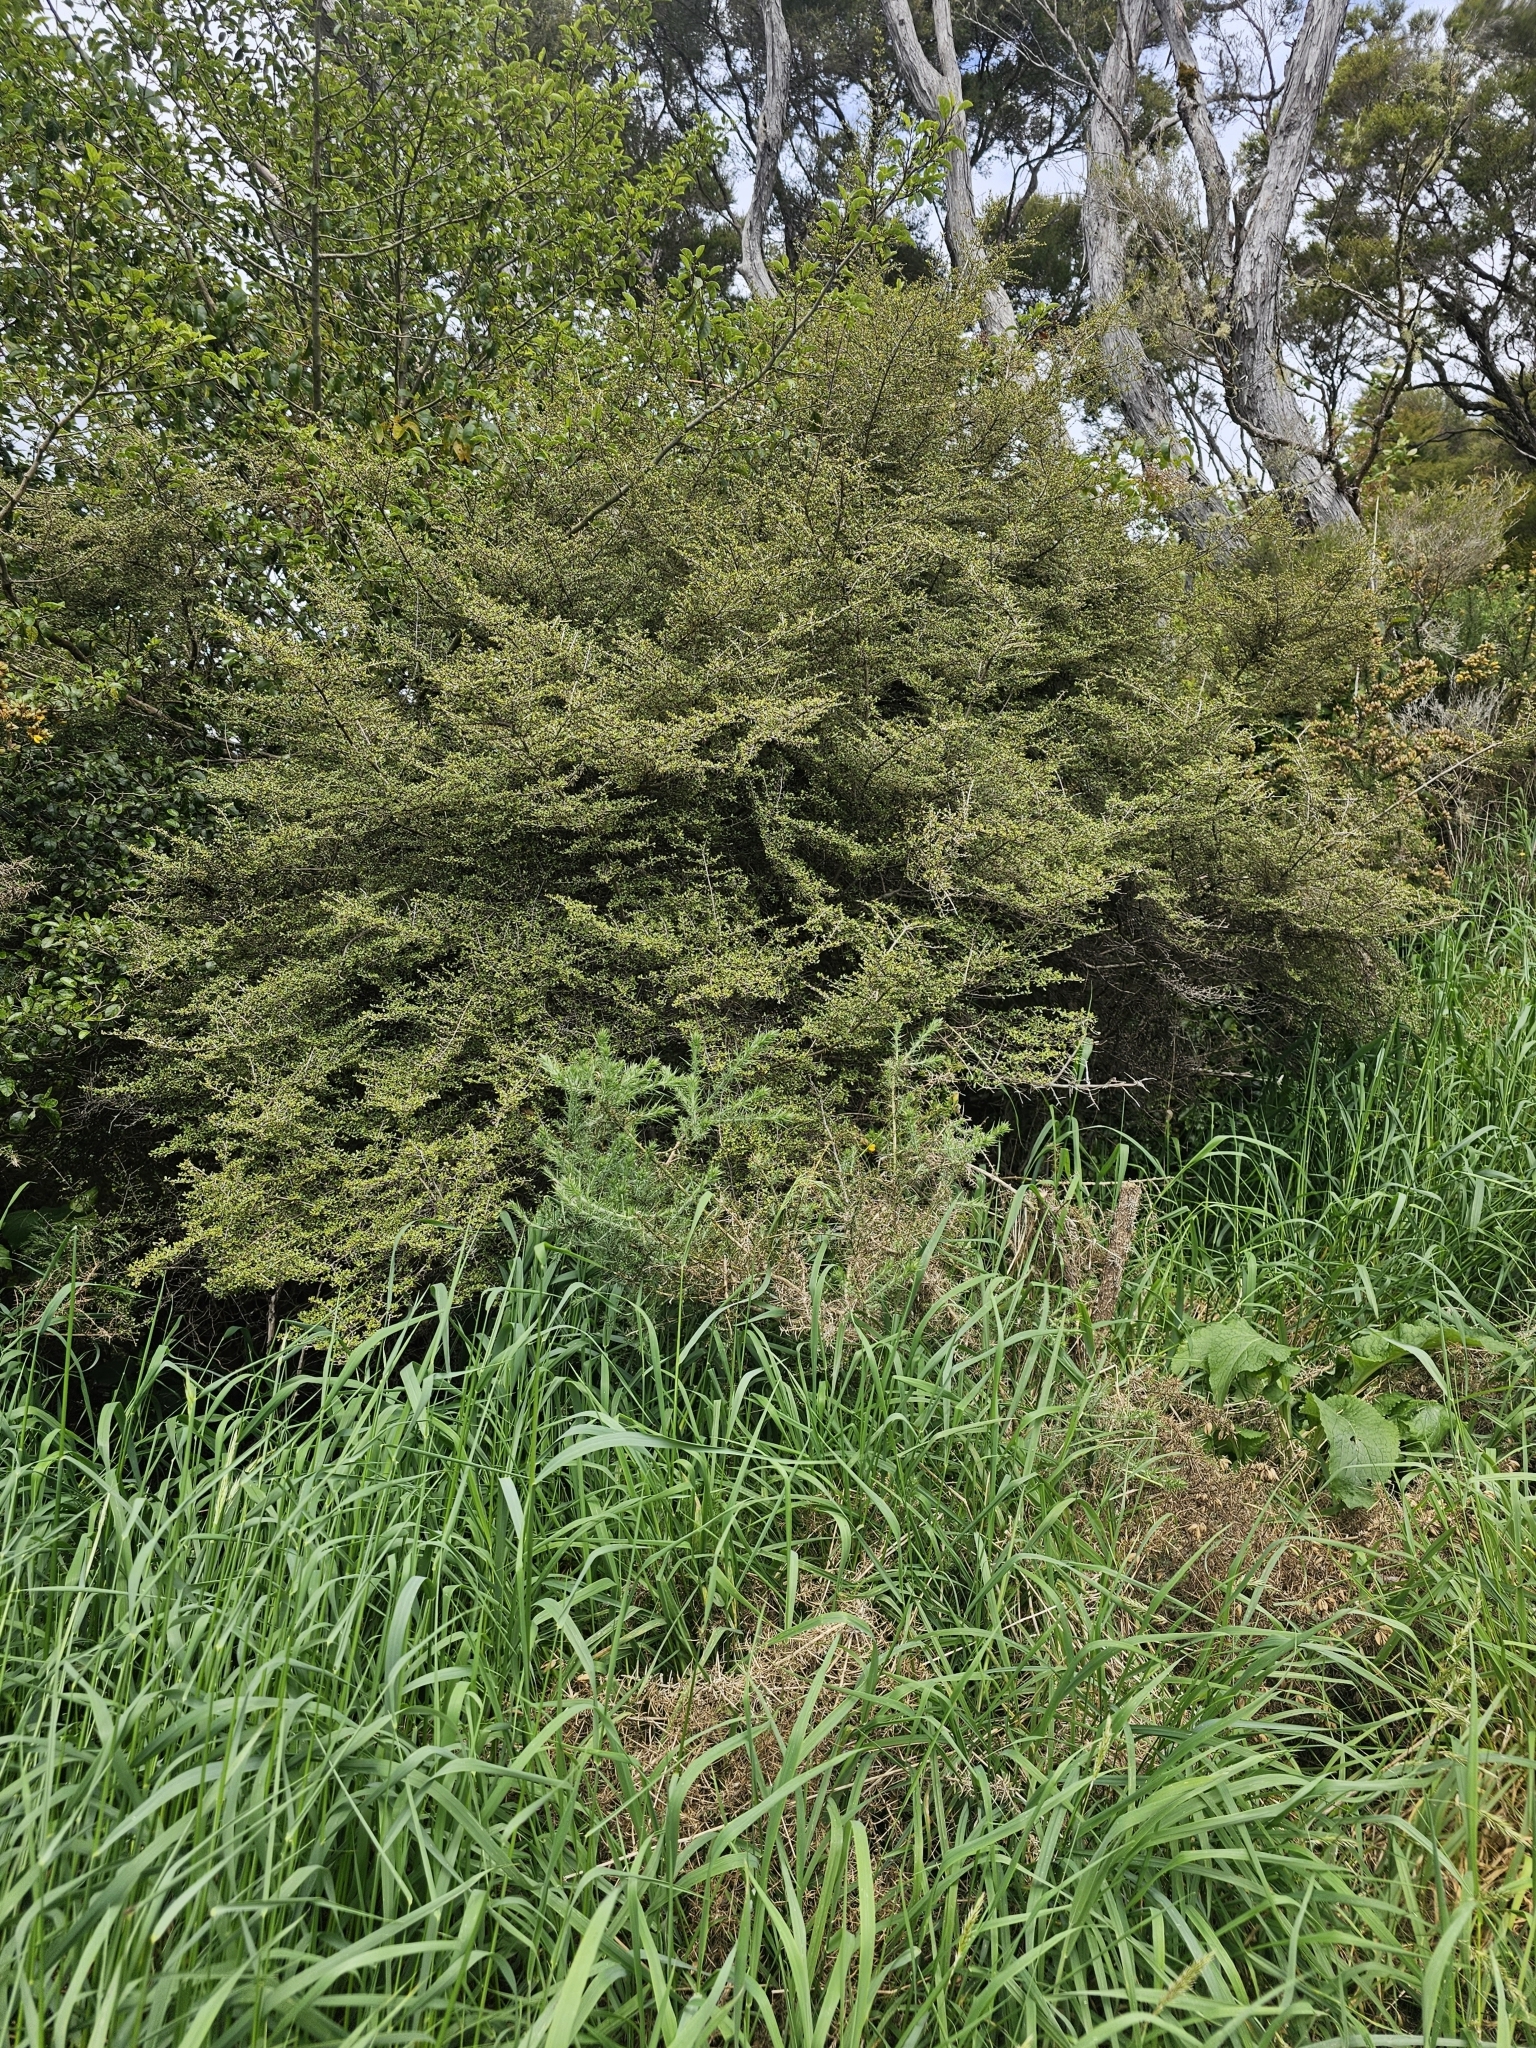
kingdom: Plantae
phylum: Tracheophyta
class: Magnoliopsida
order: Gentianales
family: Rubiaceae
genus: Coprosma
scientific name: Coprosma dumosa
